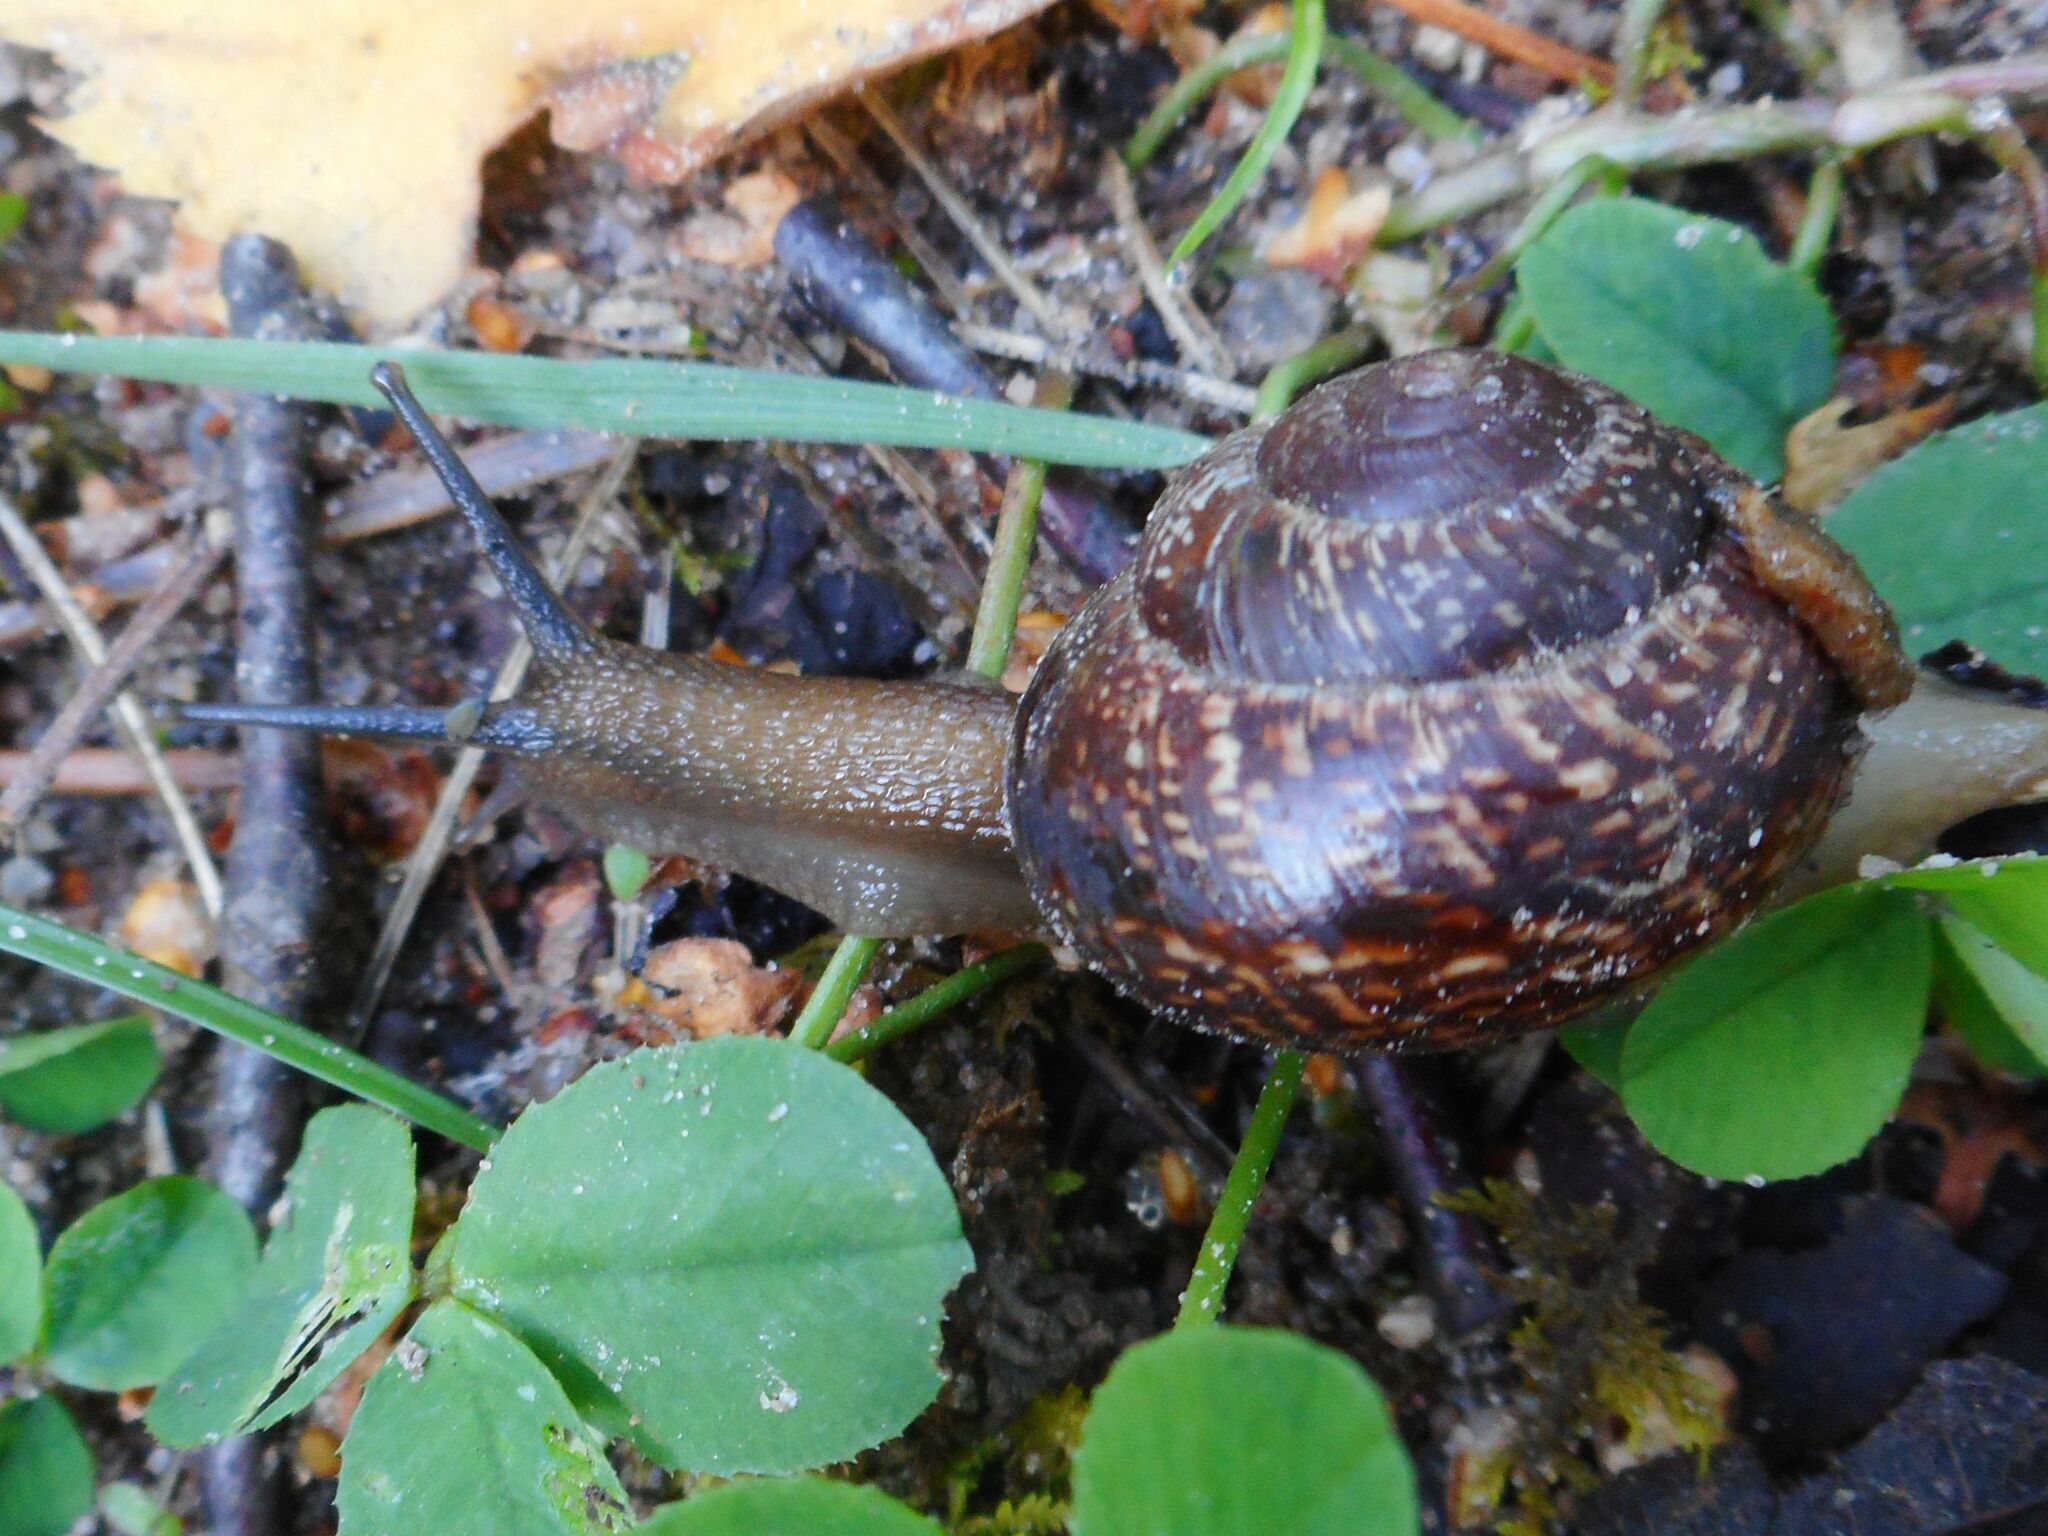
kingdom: Animalia
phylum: Mollusca
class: Gastropoda
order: Stylommatophora
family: Helicidae
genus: Arianta
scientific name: Arianta arbustorum
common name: Copse snail
